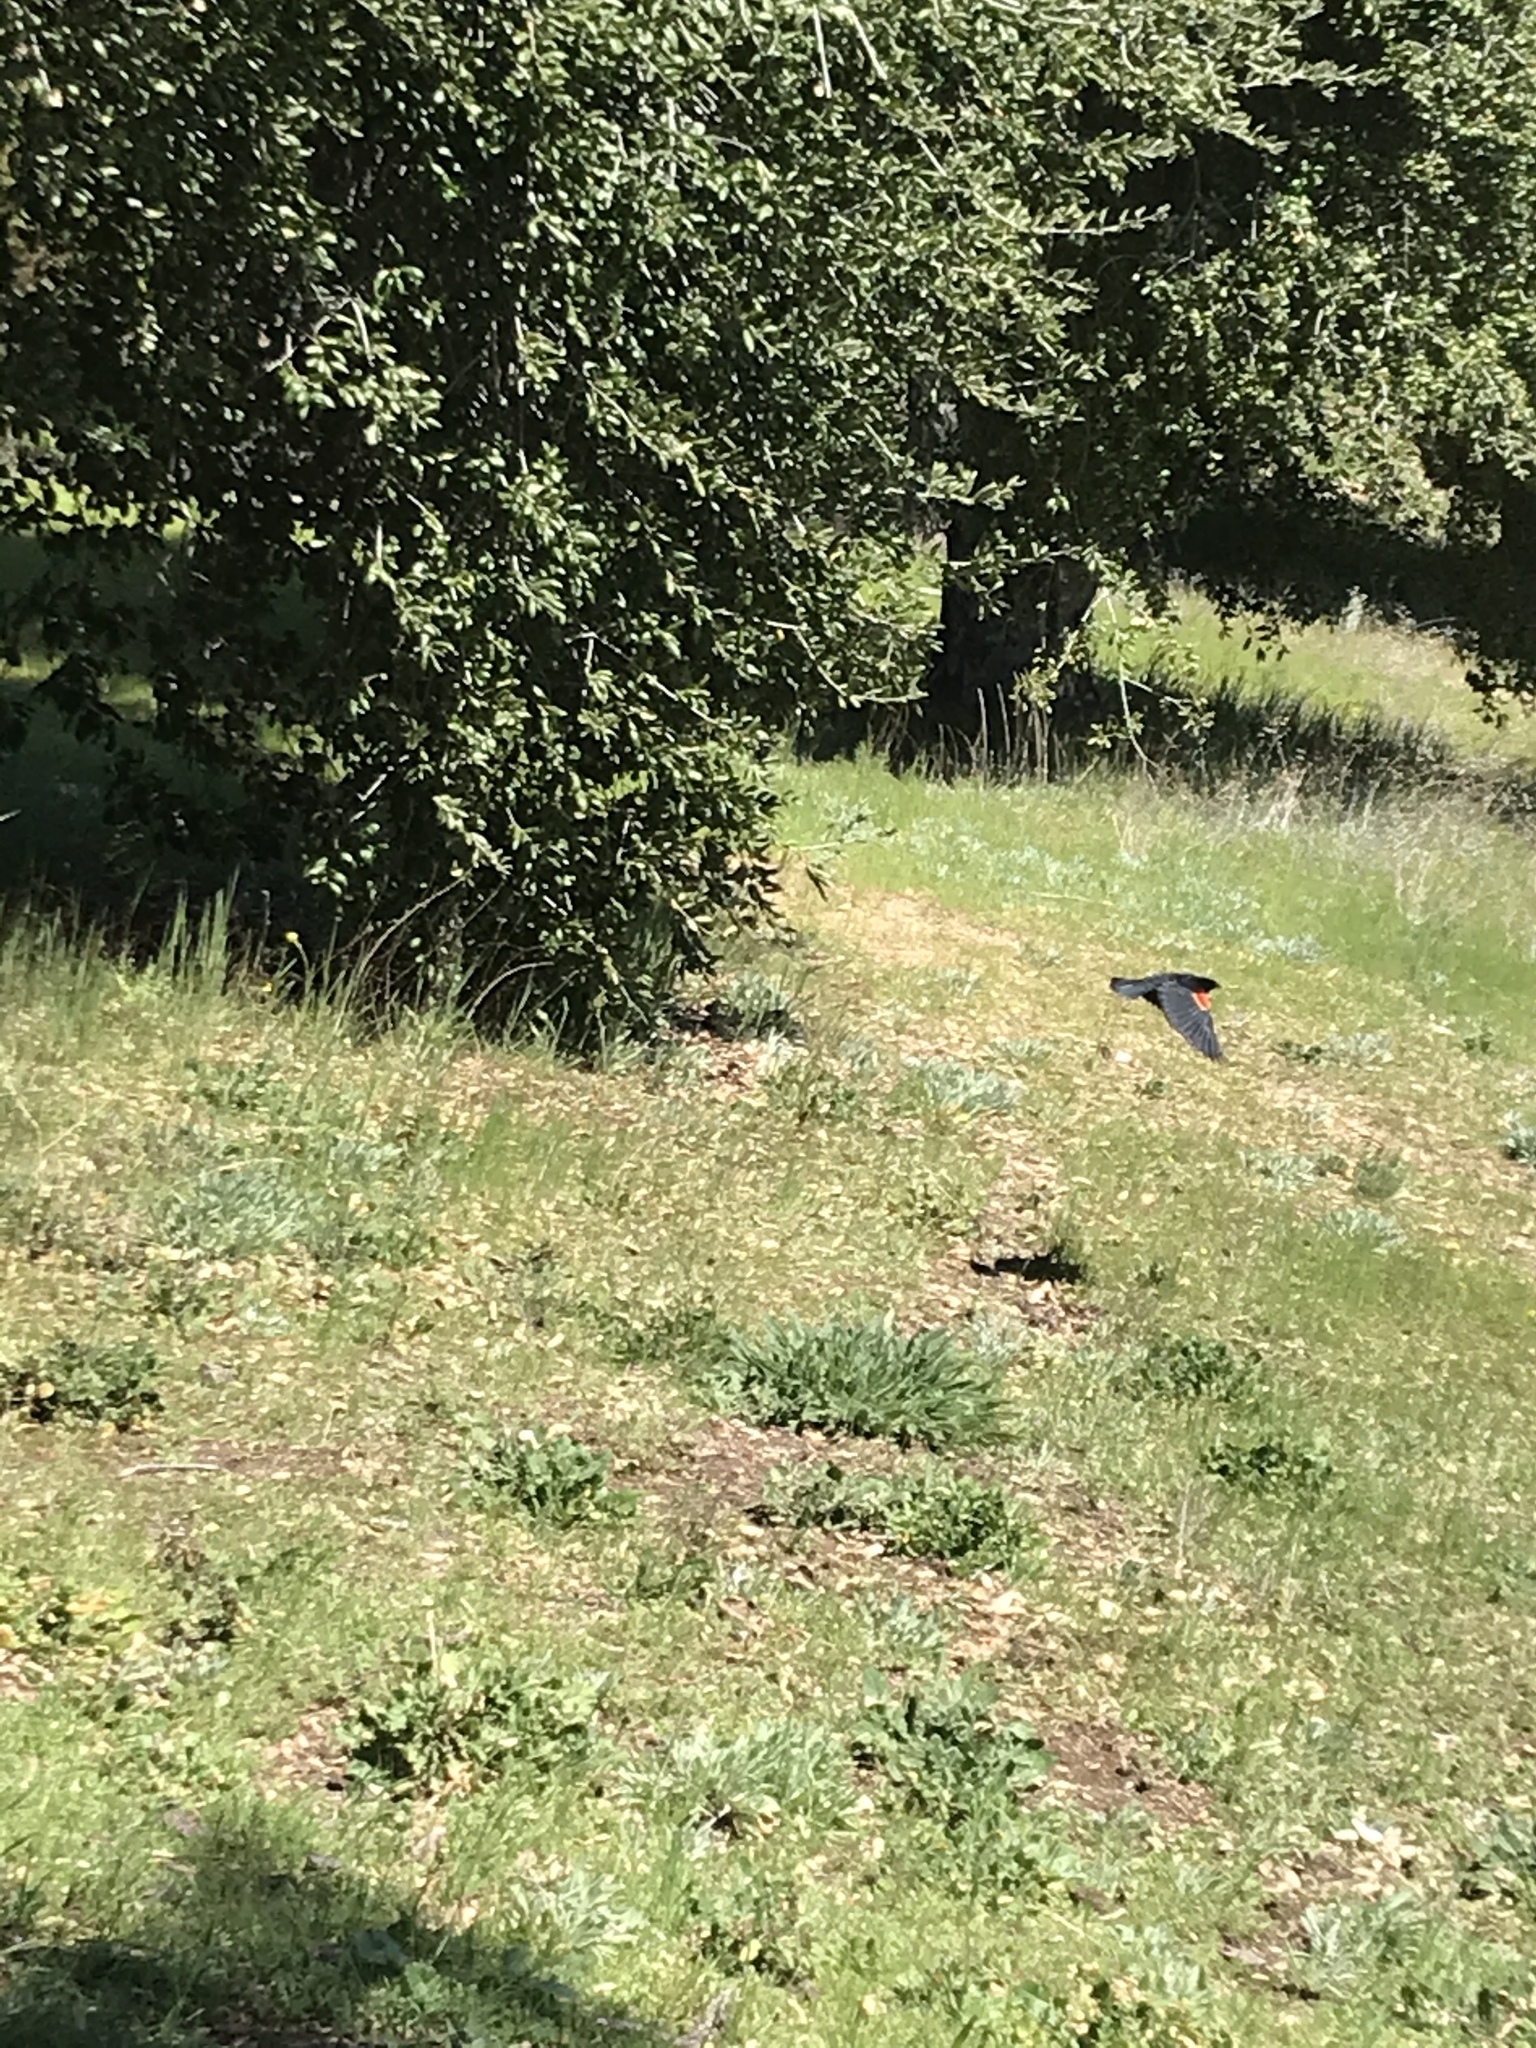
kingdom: Animalia
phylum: Chordata
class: Aves
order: Passeriformes
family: Icteridae
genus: Agelaius
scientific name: Agelaius phoeniceus
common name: Red-winged blackbird
